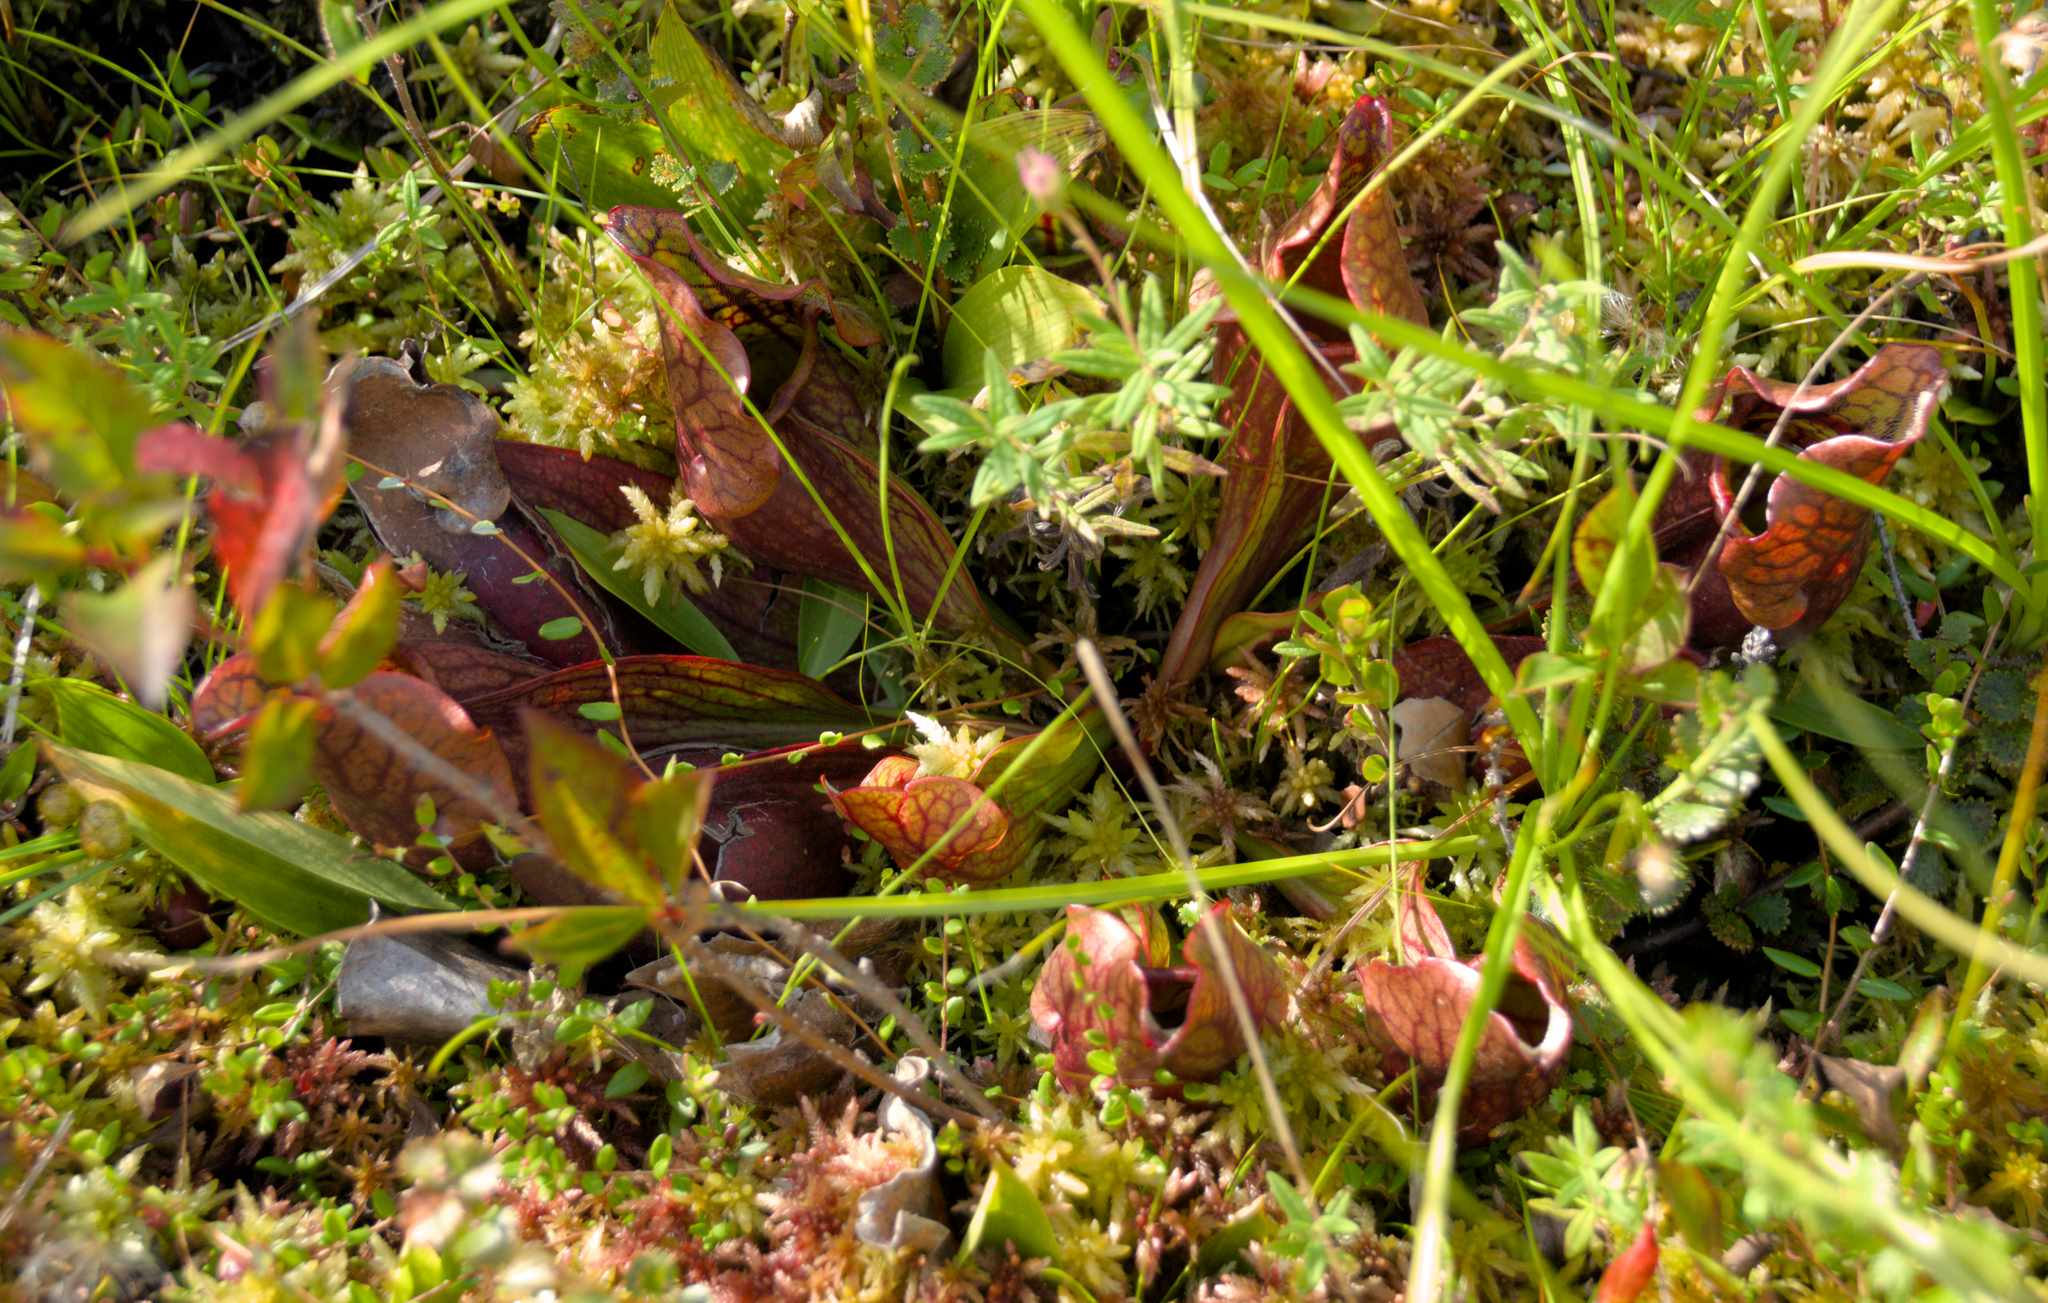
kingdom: Plantae
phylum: Tracheophyta
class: Magnoliopsida
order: Ericales
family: Sarraceniaceae
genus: Sarracenia
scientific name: Sarracenia purpurea
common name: Pitcherplant
